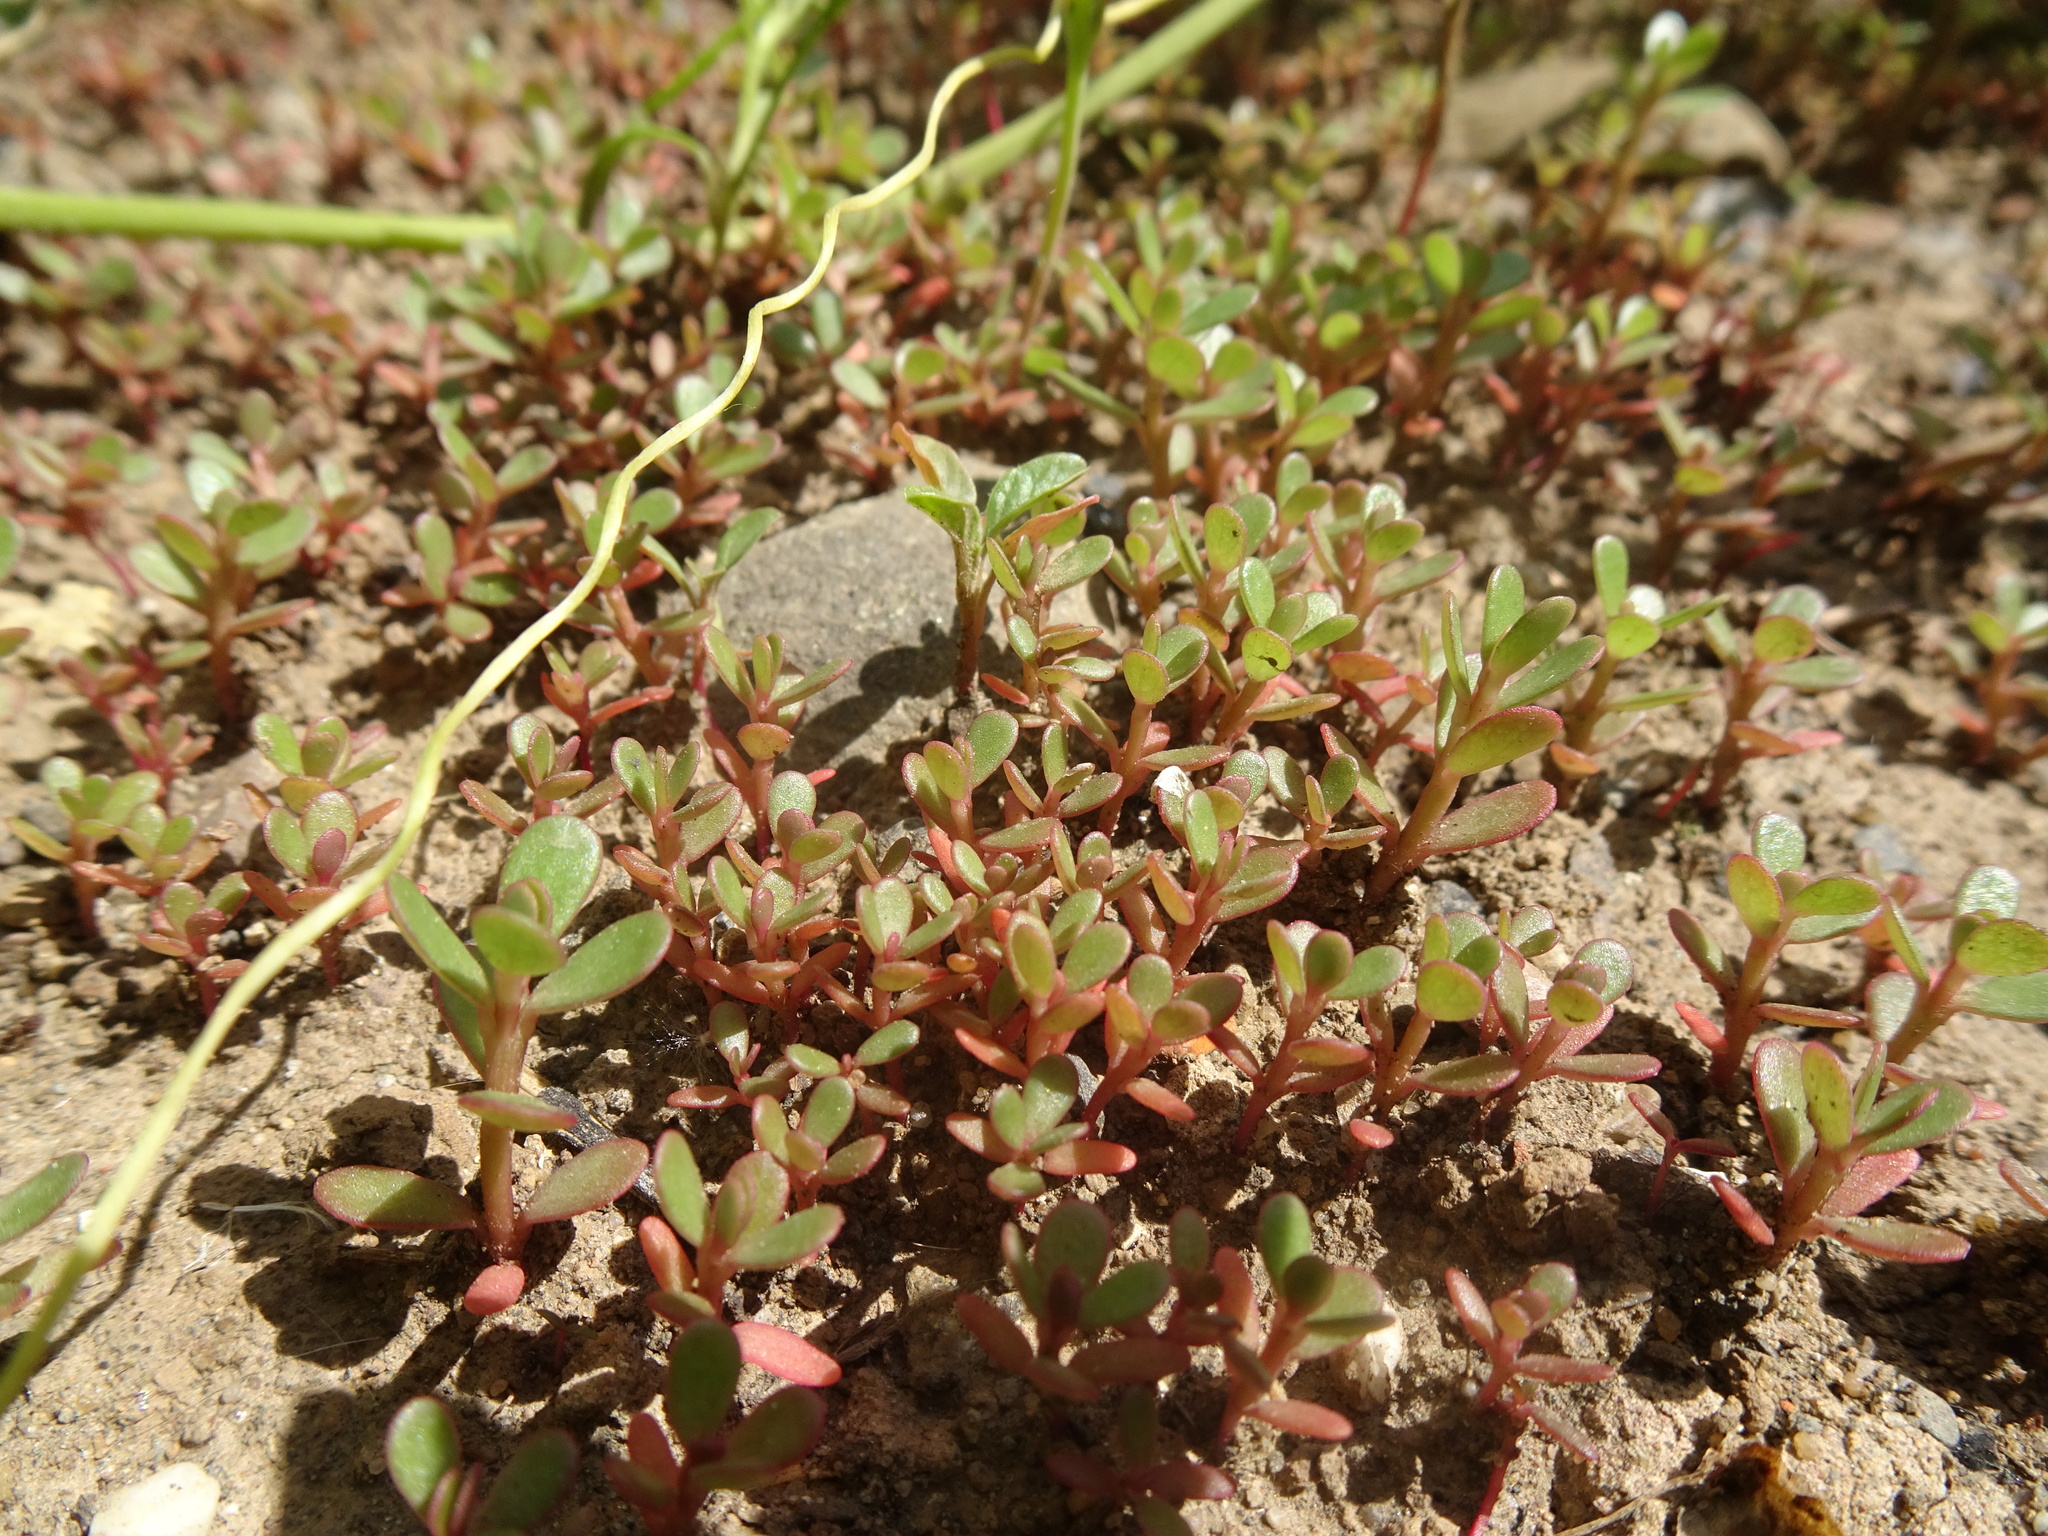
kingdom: Plantae
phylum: Tracheophyta
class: Magnoliopsida
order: Caryophyllales
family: Portulacaceae
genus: Portulaca
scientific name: Portulaca oleracea
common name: Common purslane
